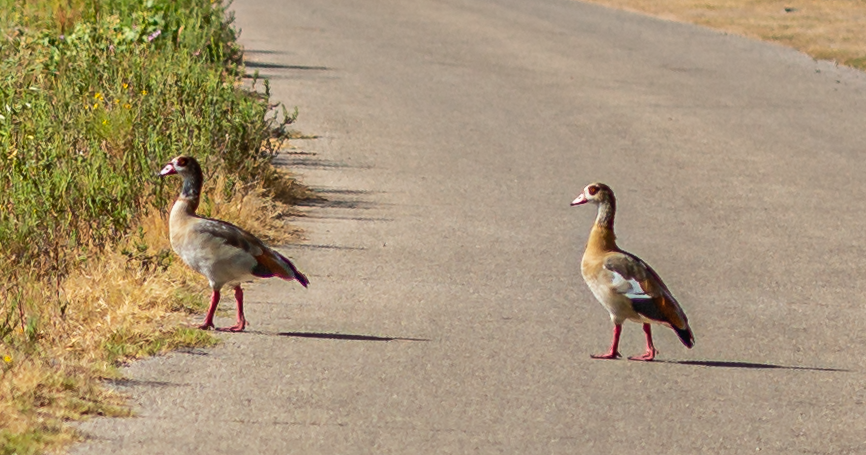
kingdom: Animalia
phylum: Chordata
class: Aves
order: Anseriformes
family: Anatidae
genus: Alopochen
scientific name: Alopochen aegyptiaca
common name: Egyptian goose
